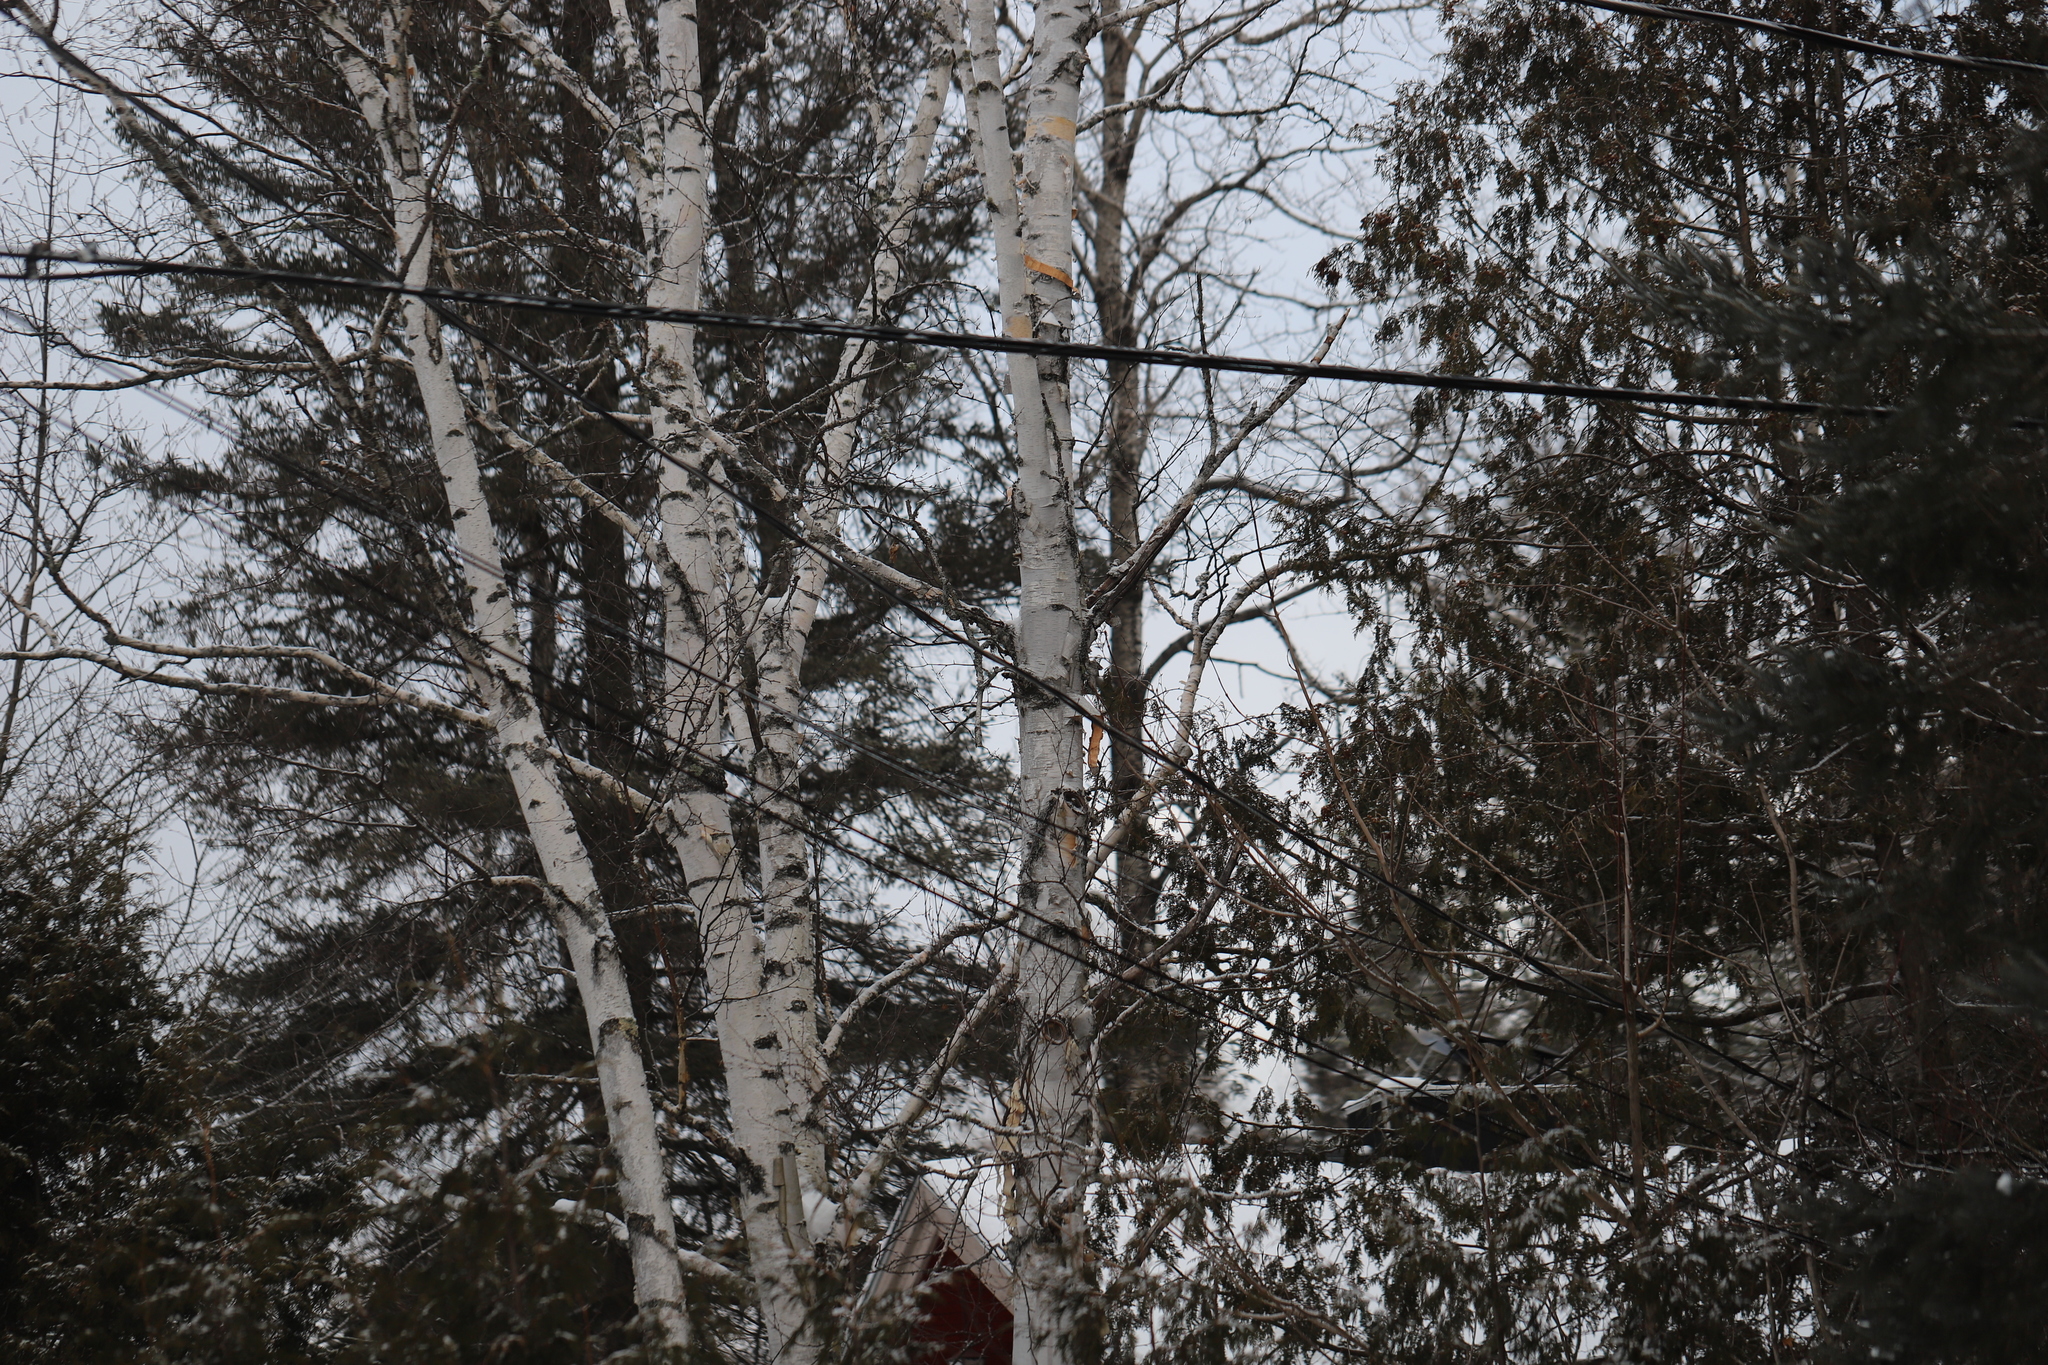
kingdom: Plantae
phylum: Tracheophyta
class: Magnoliopsida
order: Fagales
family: Betulaceae
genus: Betula
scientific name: Betula papyrifera
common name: Paper birch
